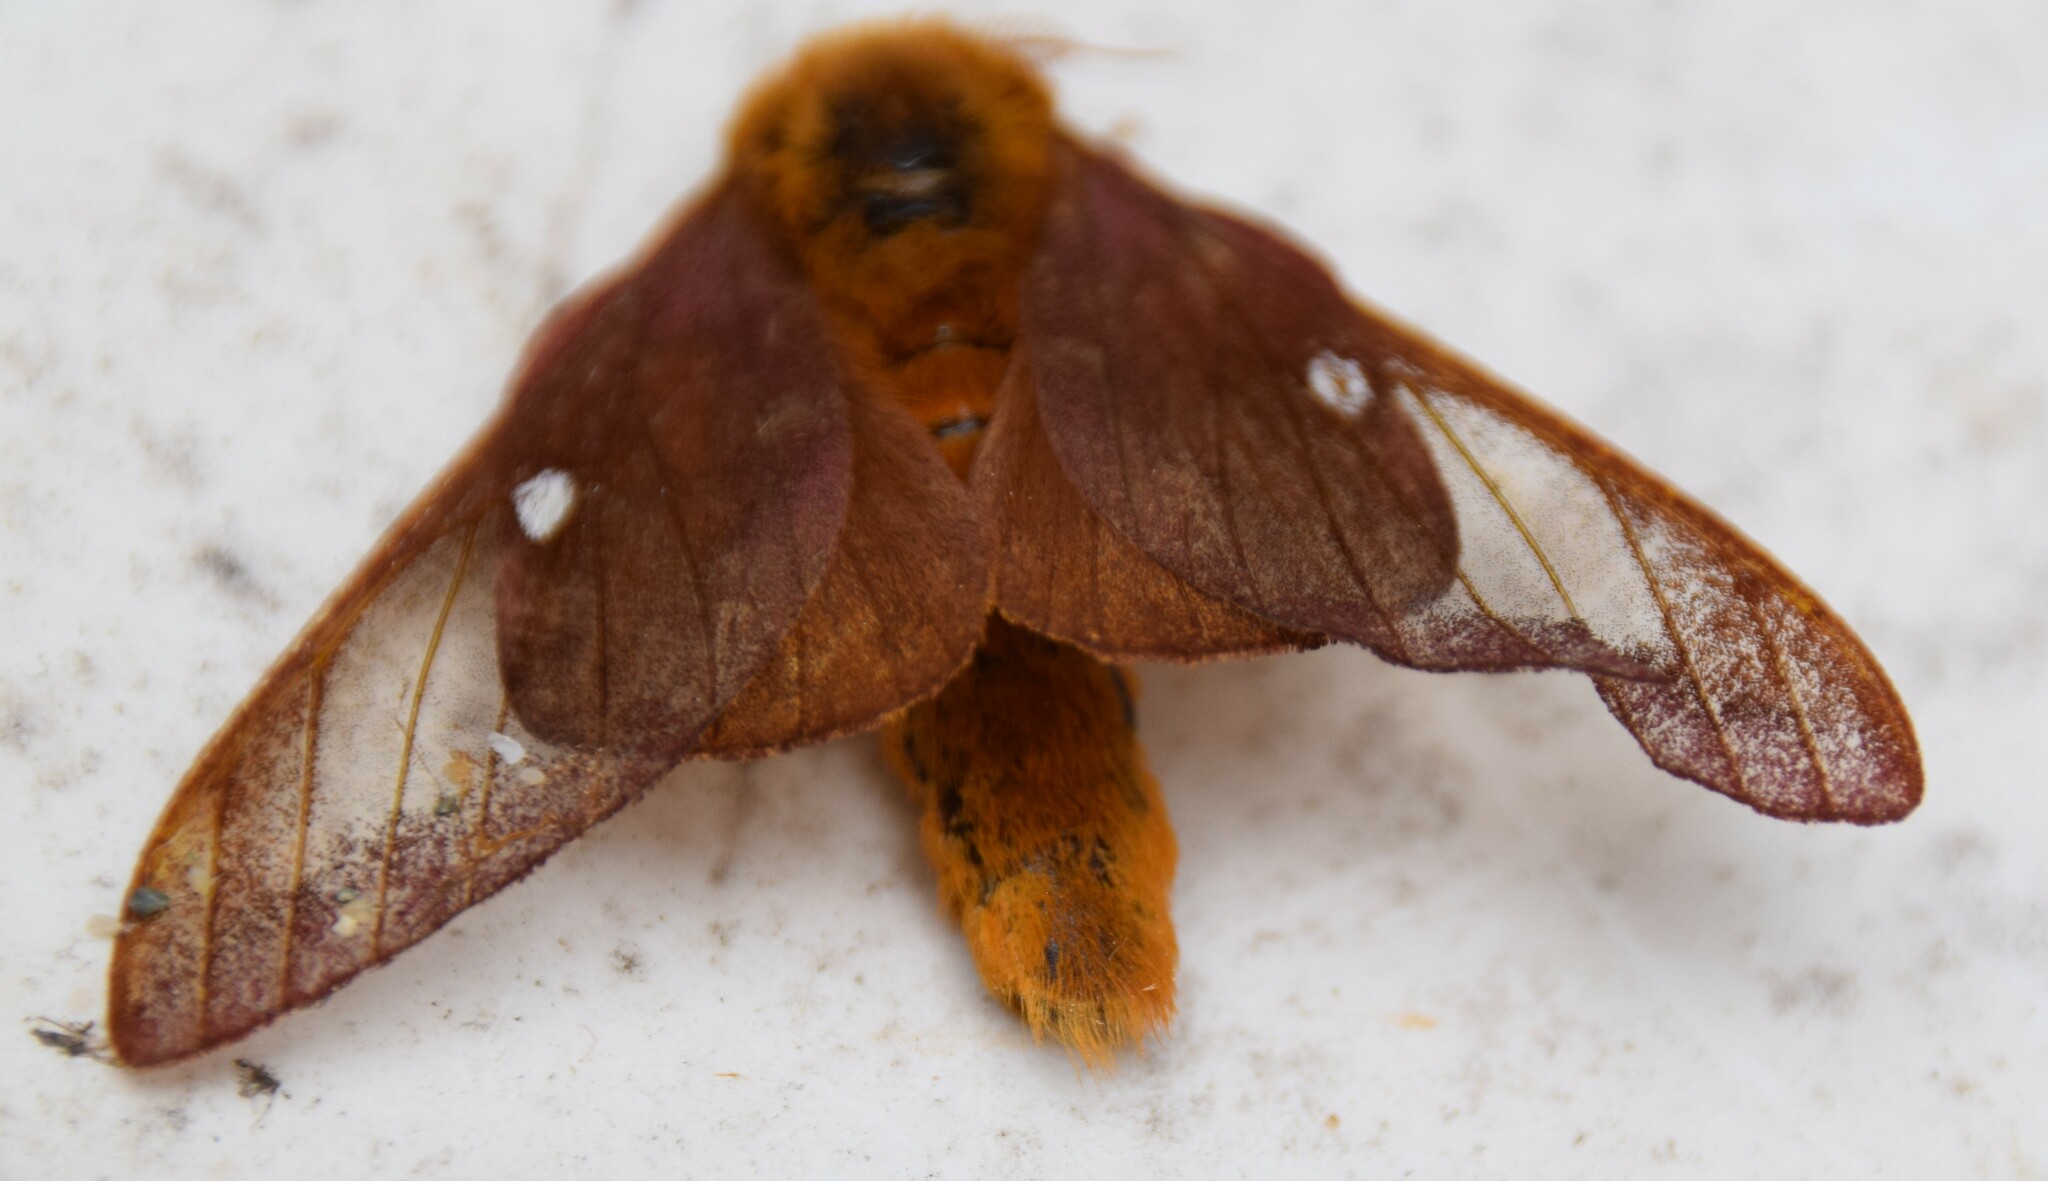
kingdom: Animalia
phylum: Arthropoda
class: Insecta
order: Lepidoptera
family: Saturniidae
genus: Anisota
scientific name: Anisota virginiensis
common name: Pink striped oakworm moth
